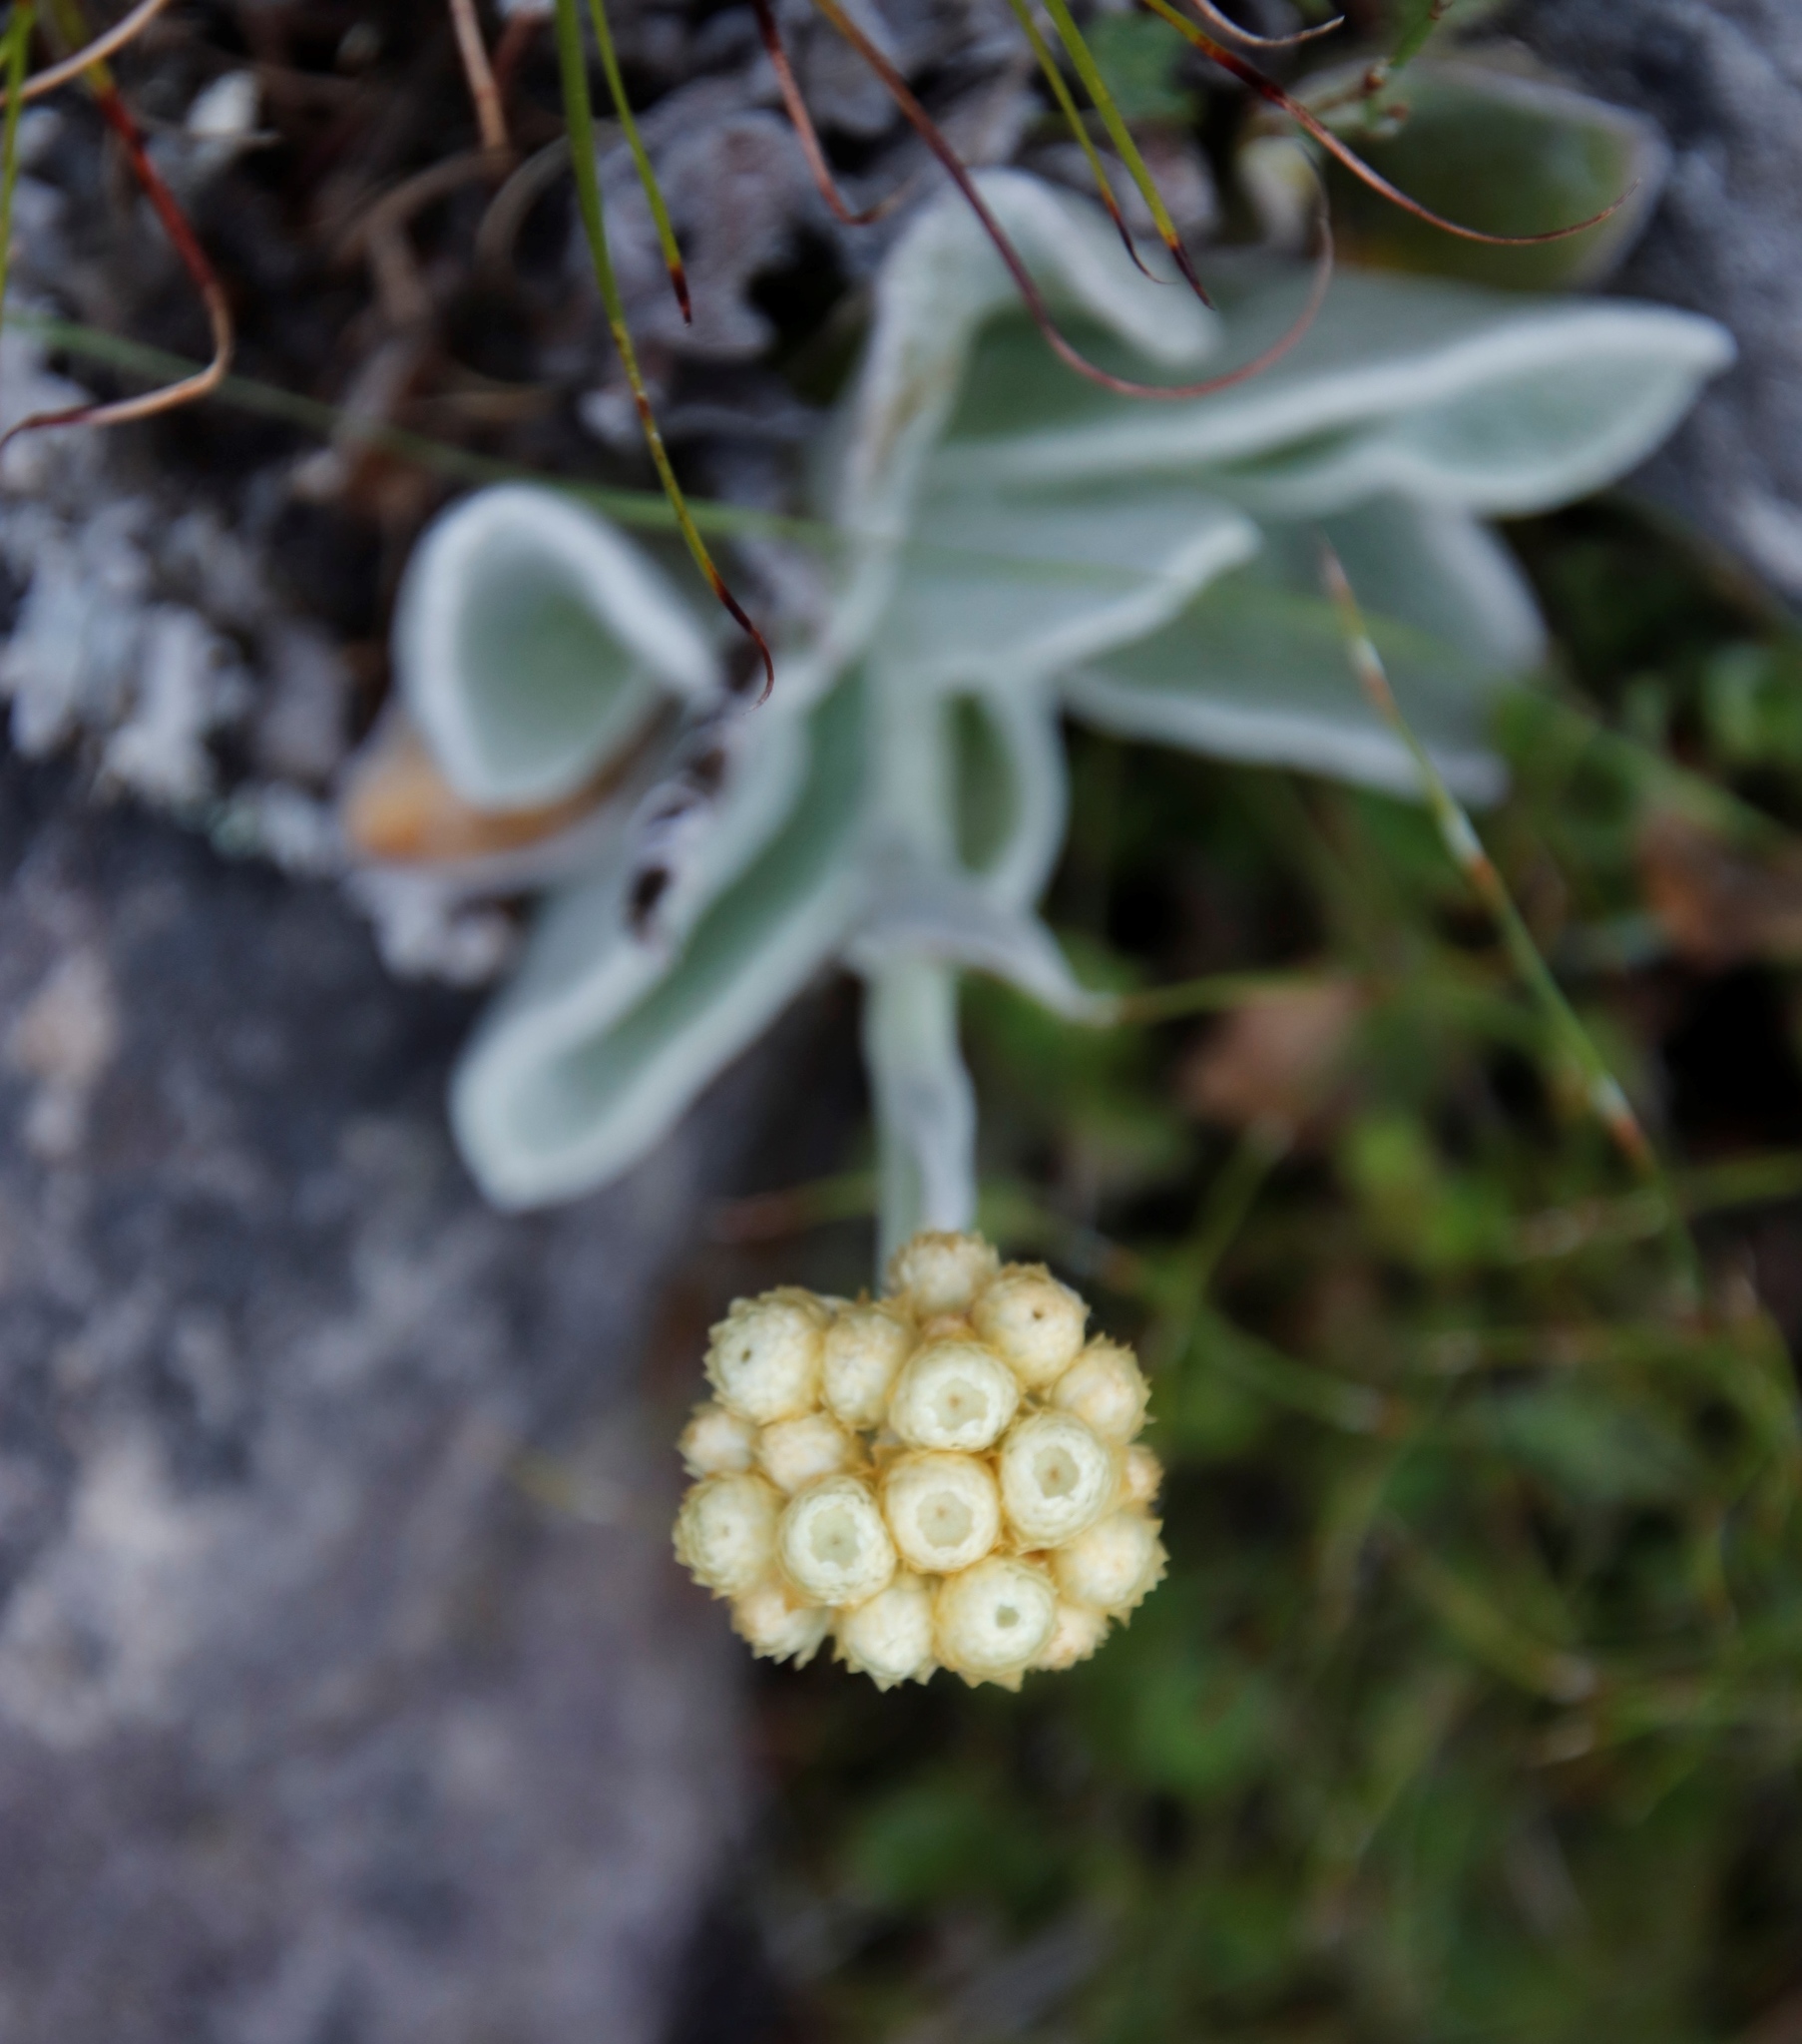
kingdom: Plantae
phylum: Tracheophyta
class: Magnoliopsida
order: Asterales
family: Asteraceae
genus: Helichrysum
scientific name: Helichrysum grandiflorum
